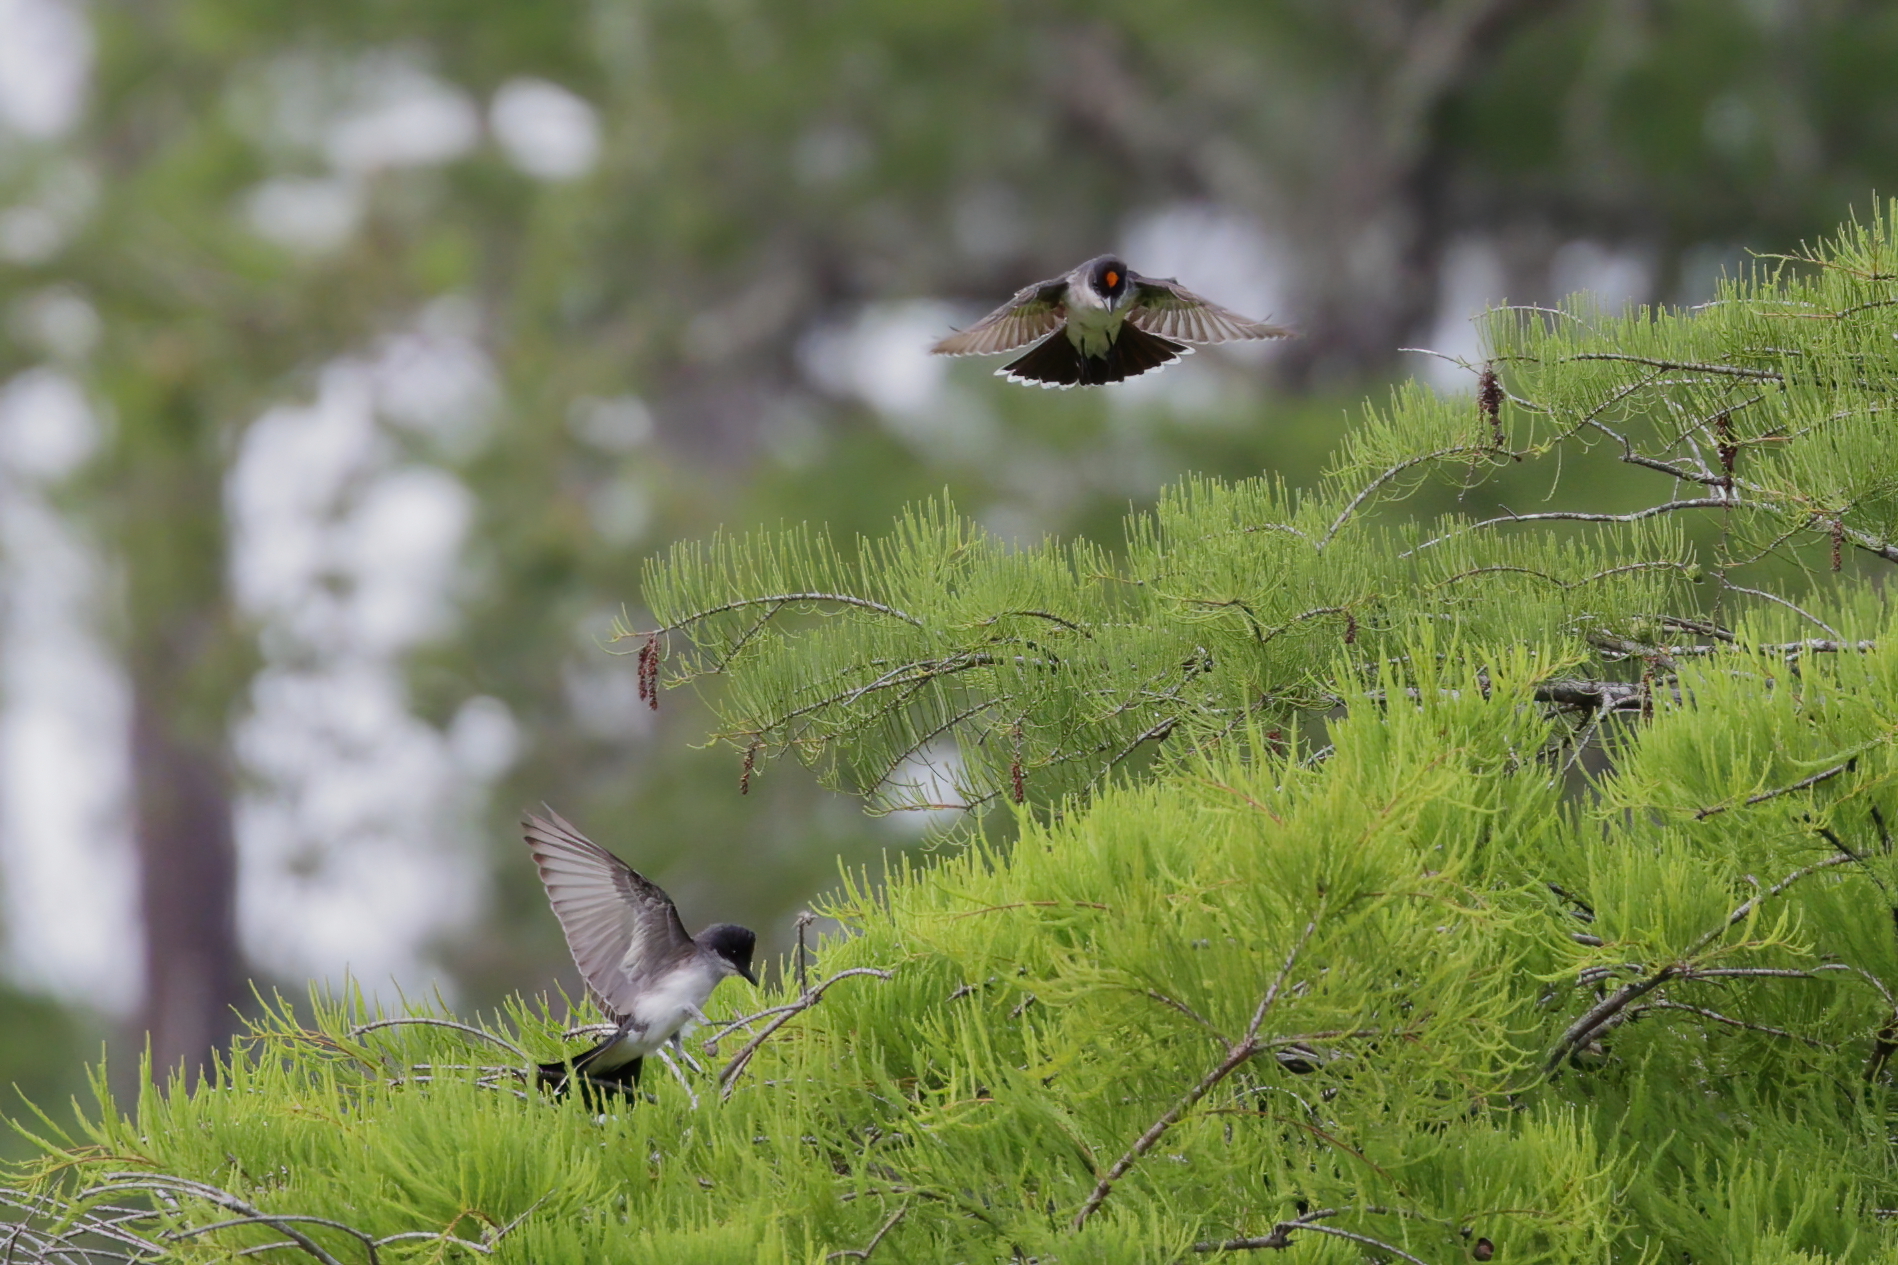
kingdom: Animalia
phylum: Chordata
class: Aves
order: Passeriformes
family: Tyrannidae
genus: Tyrannus
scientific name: Tyrannus tyrannus
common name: Eastern kingbird
